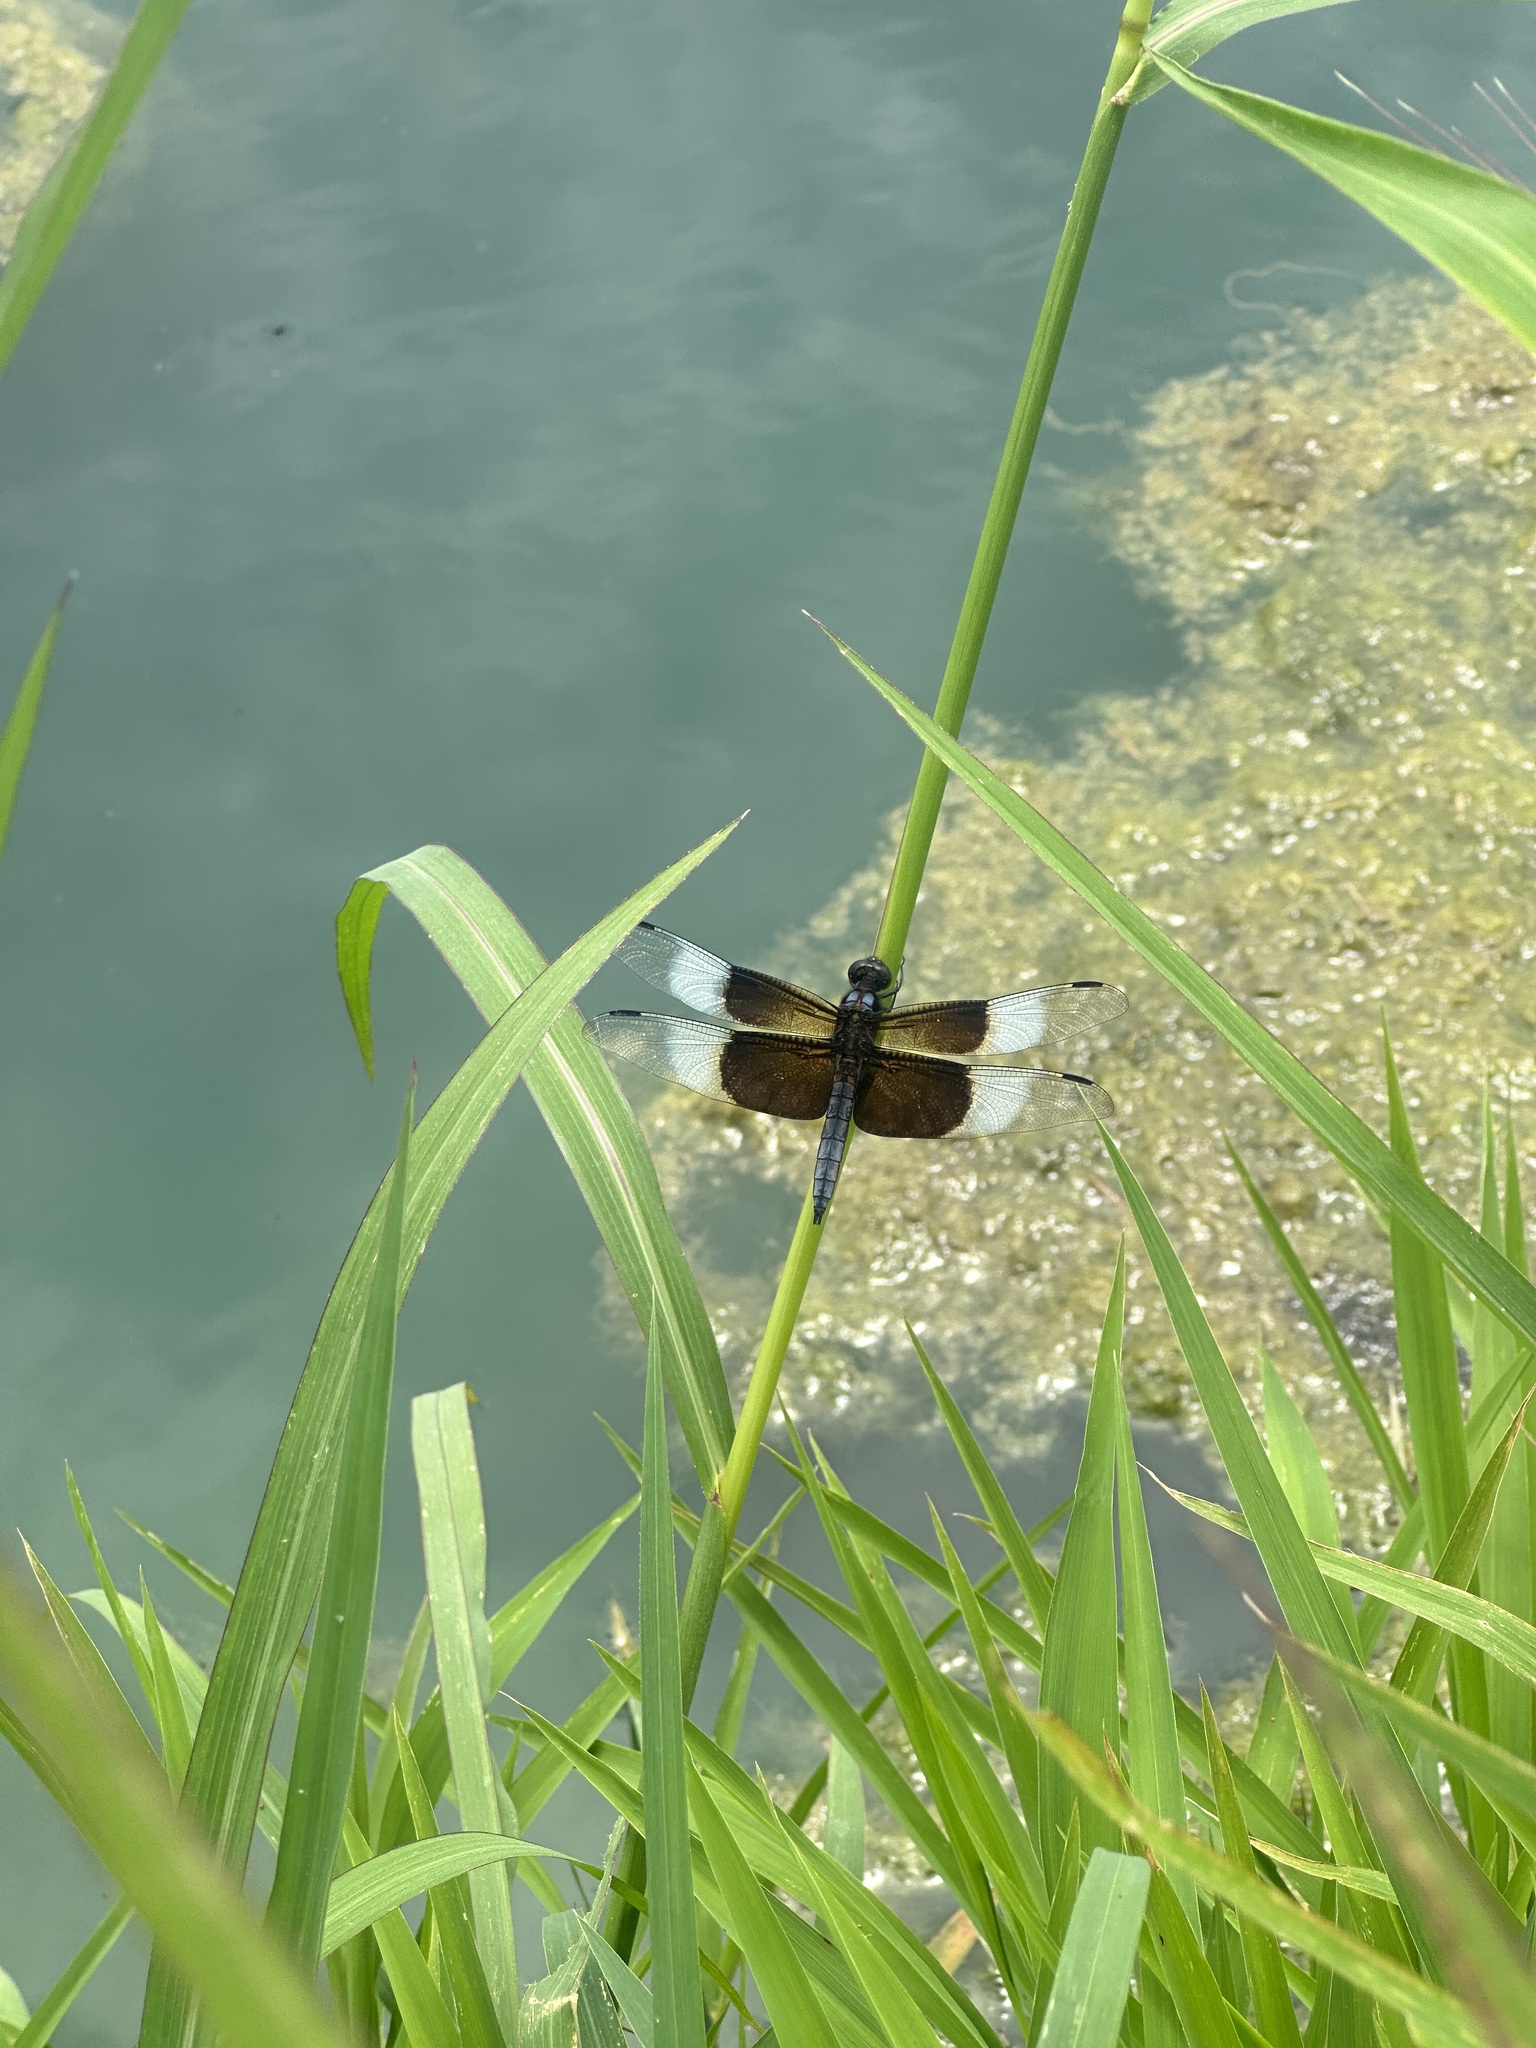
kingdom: Animalia
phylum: Arthropoda
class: Insecta
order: Odonata
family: Libellulidae
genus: Libellula
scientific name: Libellula luctuosa
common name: Widow skimmer
